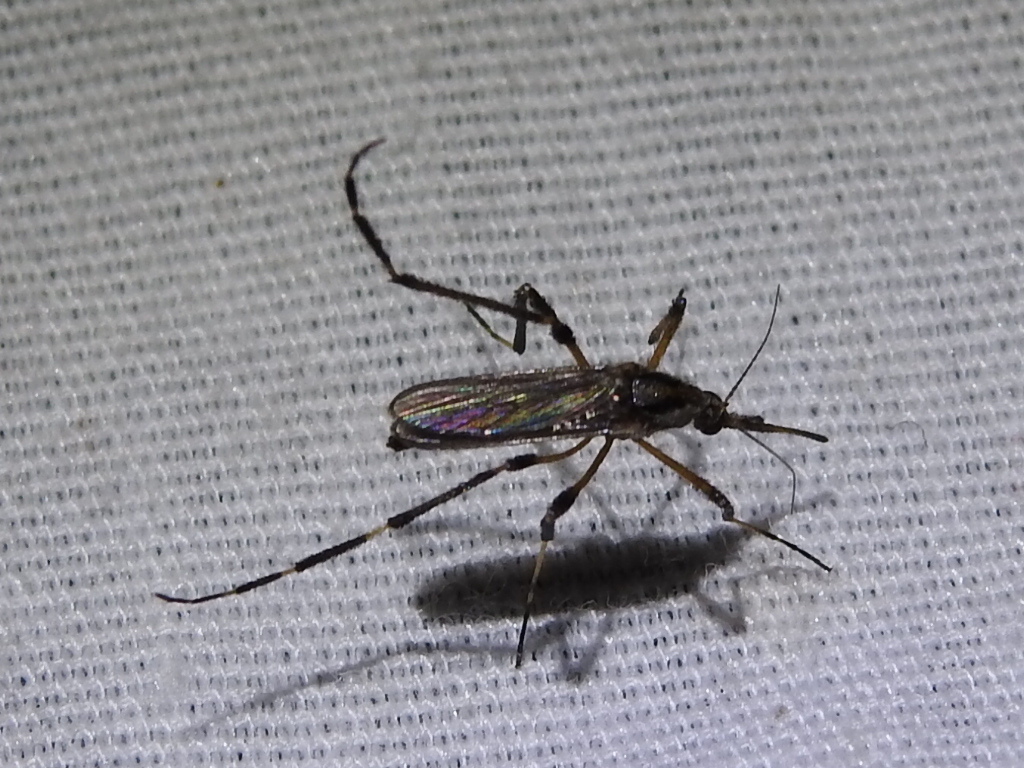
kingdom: Animalia
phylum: Arthropoda
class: Insecta
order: Diptera
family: Culicidae
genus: Psorophora
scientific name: Psorophora ciliata
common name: Gallinipper
